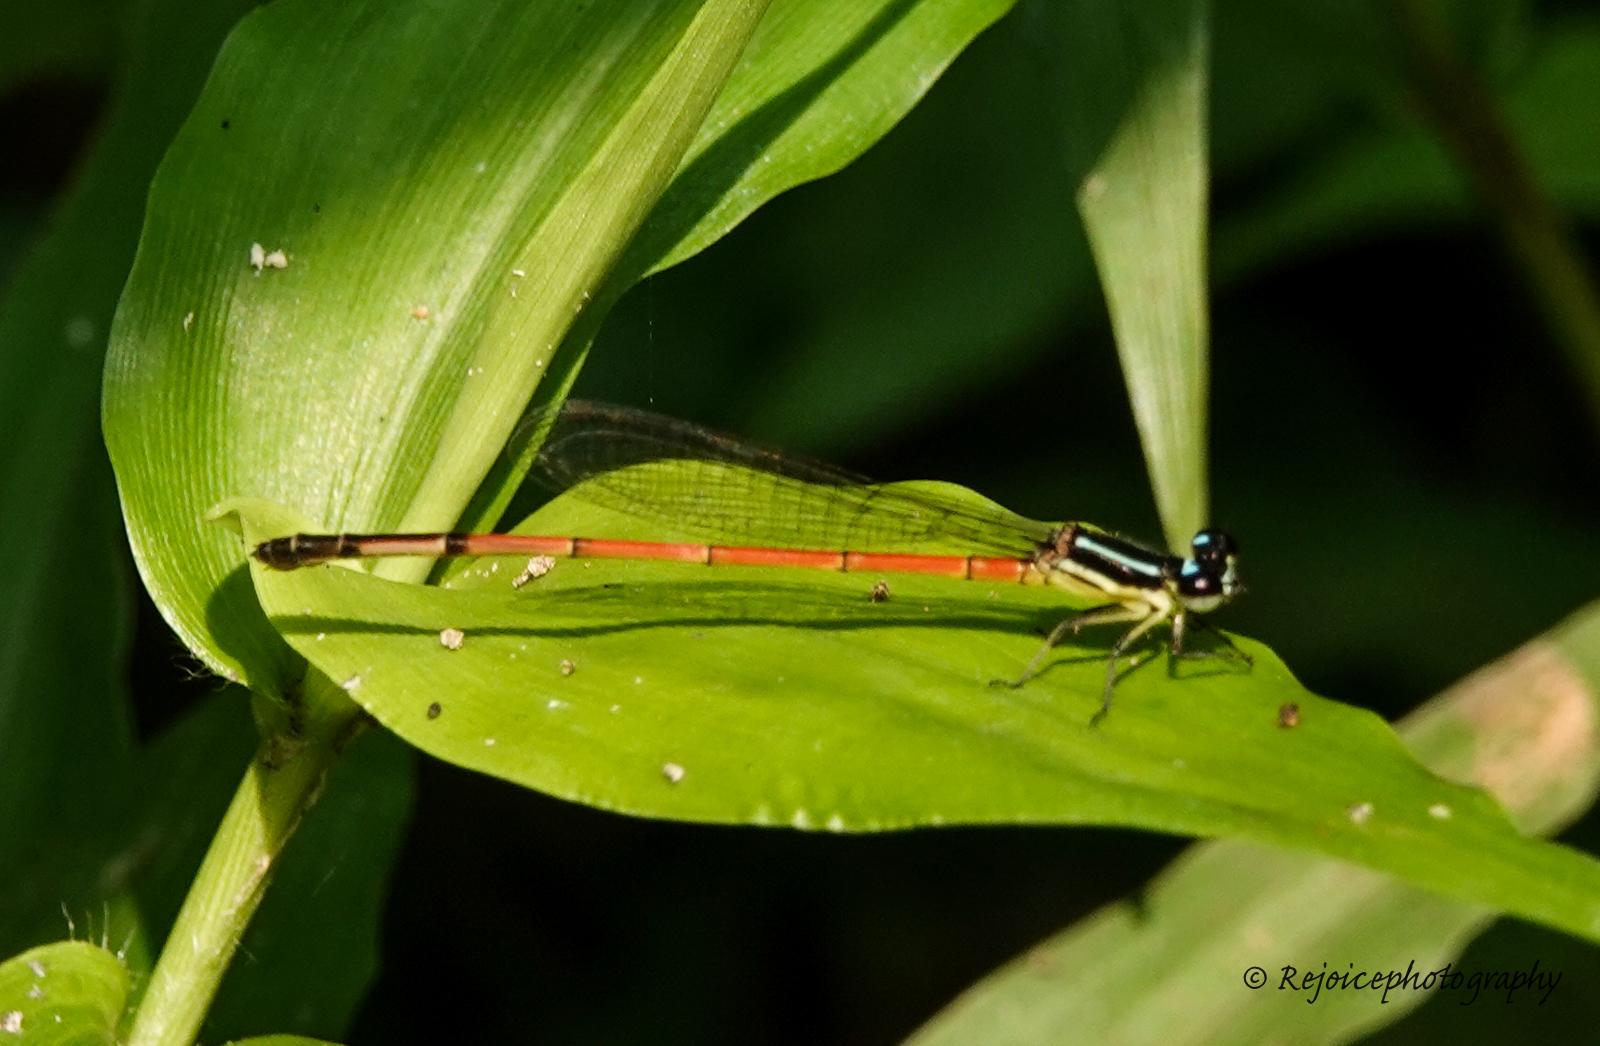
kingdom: Animalia
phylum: Arthropoda
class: Insecta
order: Odonata
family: Coenagrionidae
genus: Mortonagrion
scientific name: Mortonagrion aborense
